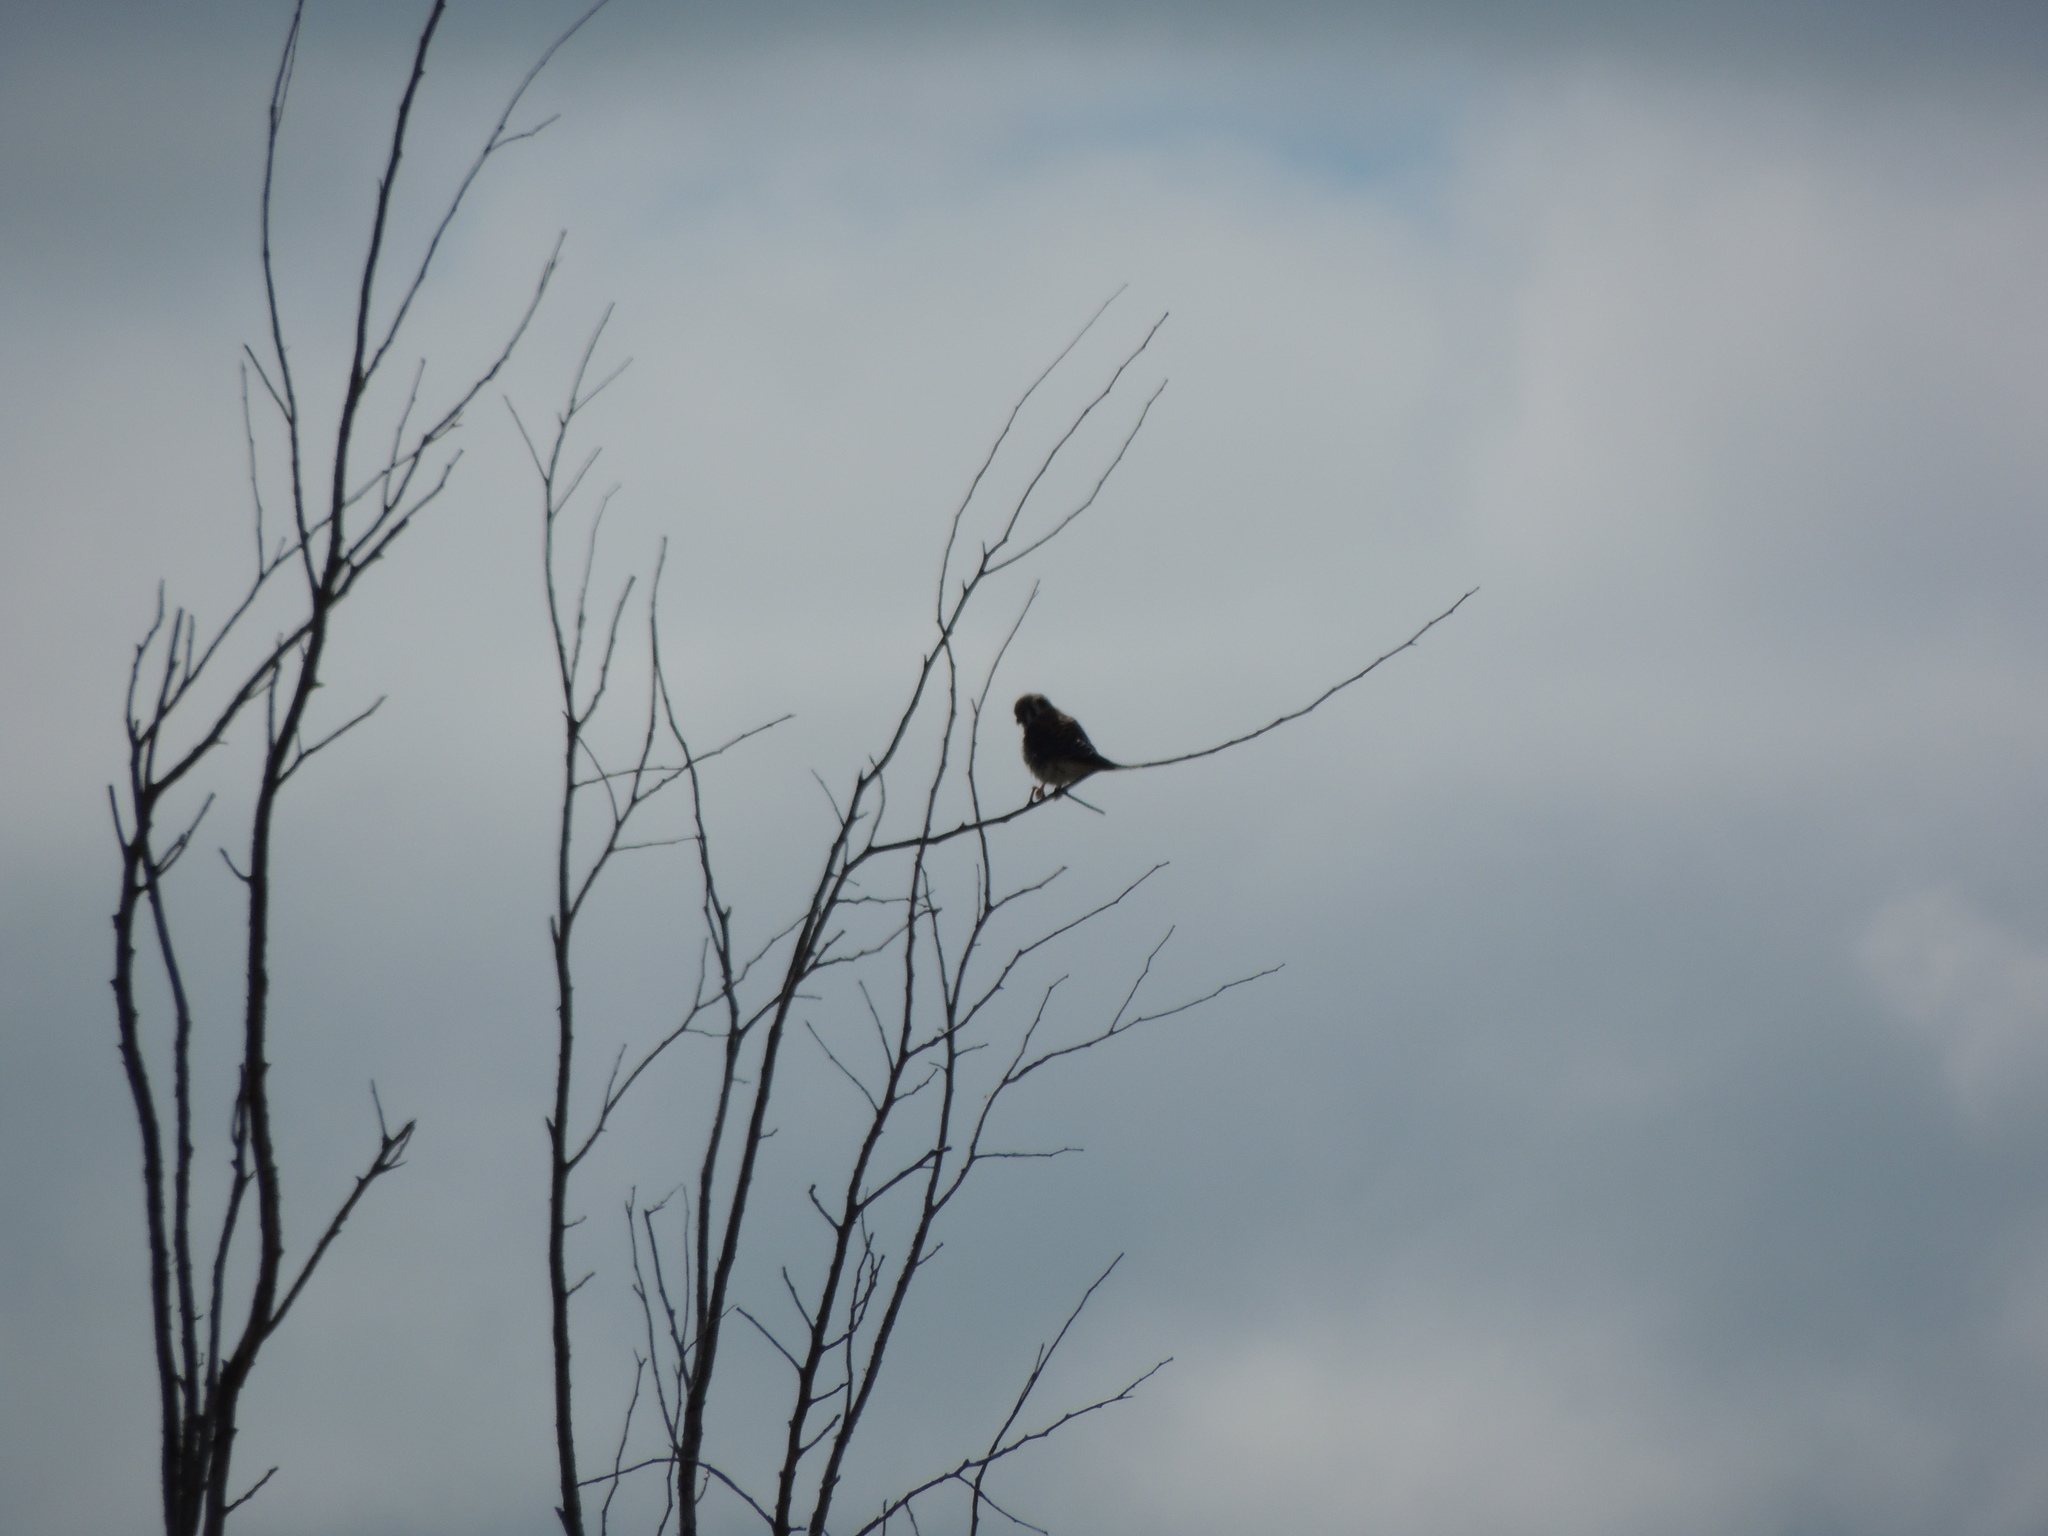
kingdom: Animalia
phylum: Chordata
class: Aves
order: Falconiformes
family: Falconidae
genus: Falco
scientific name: Falco sparverius
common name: American kestrel
